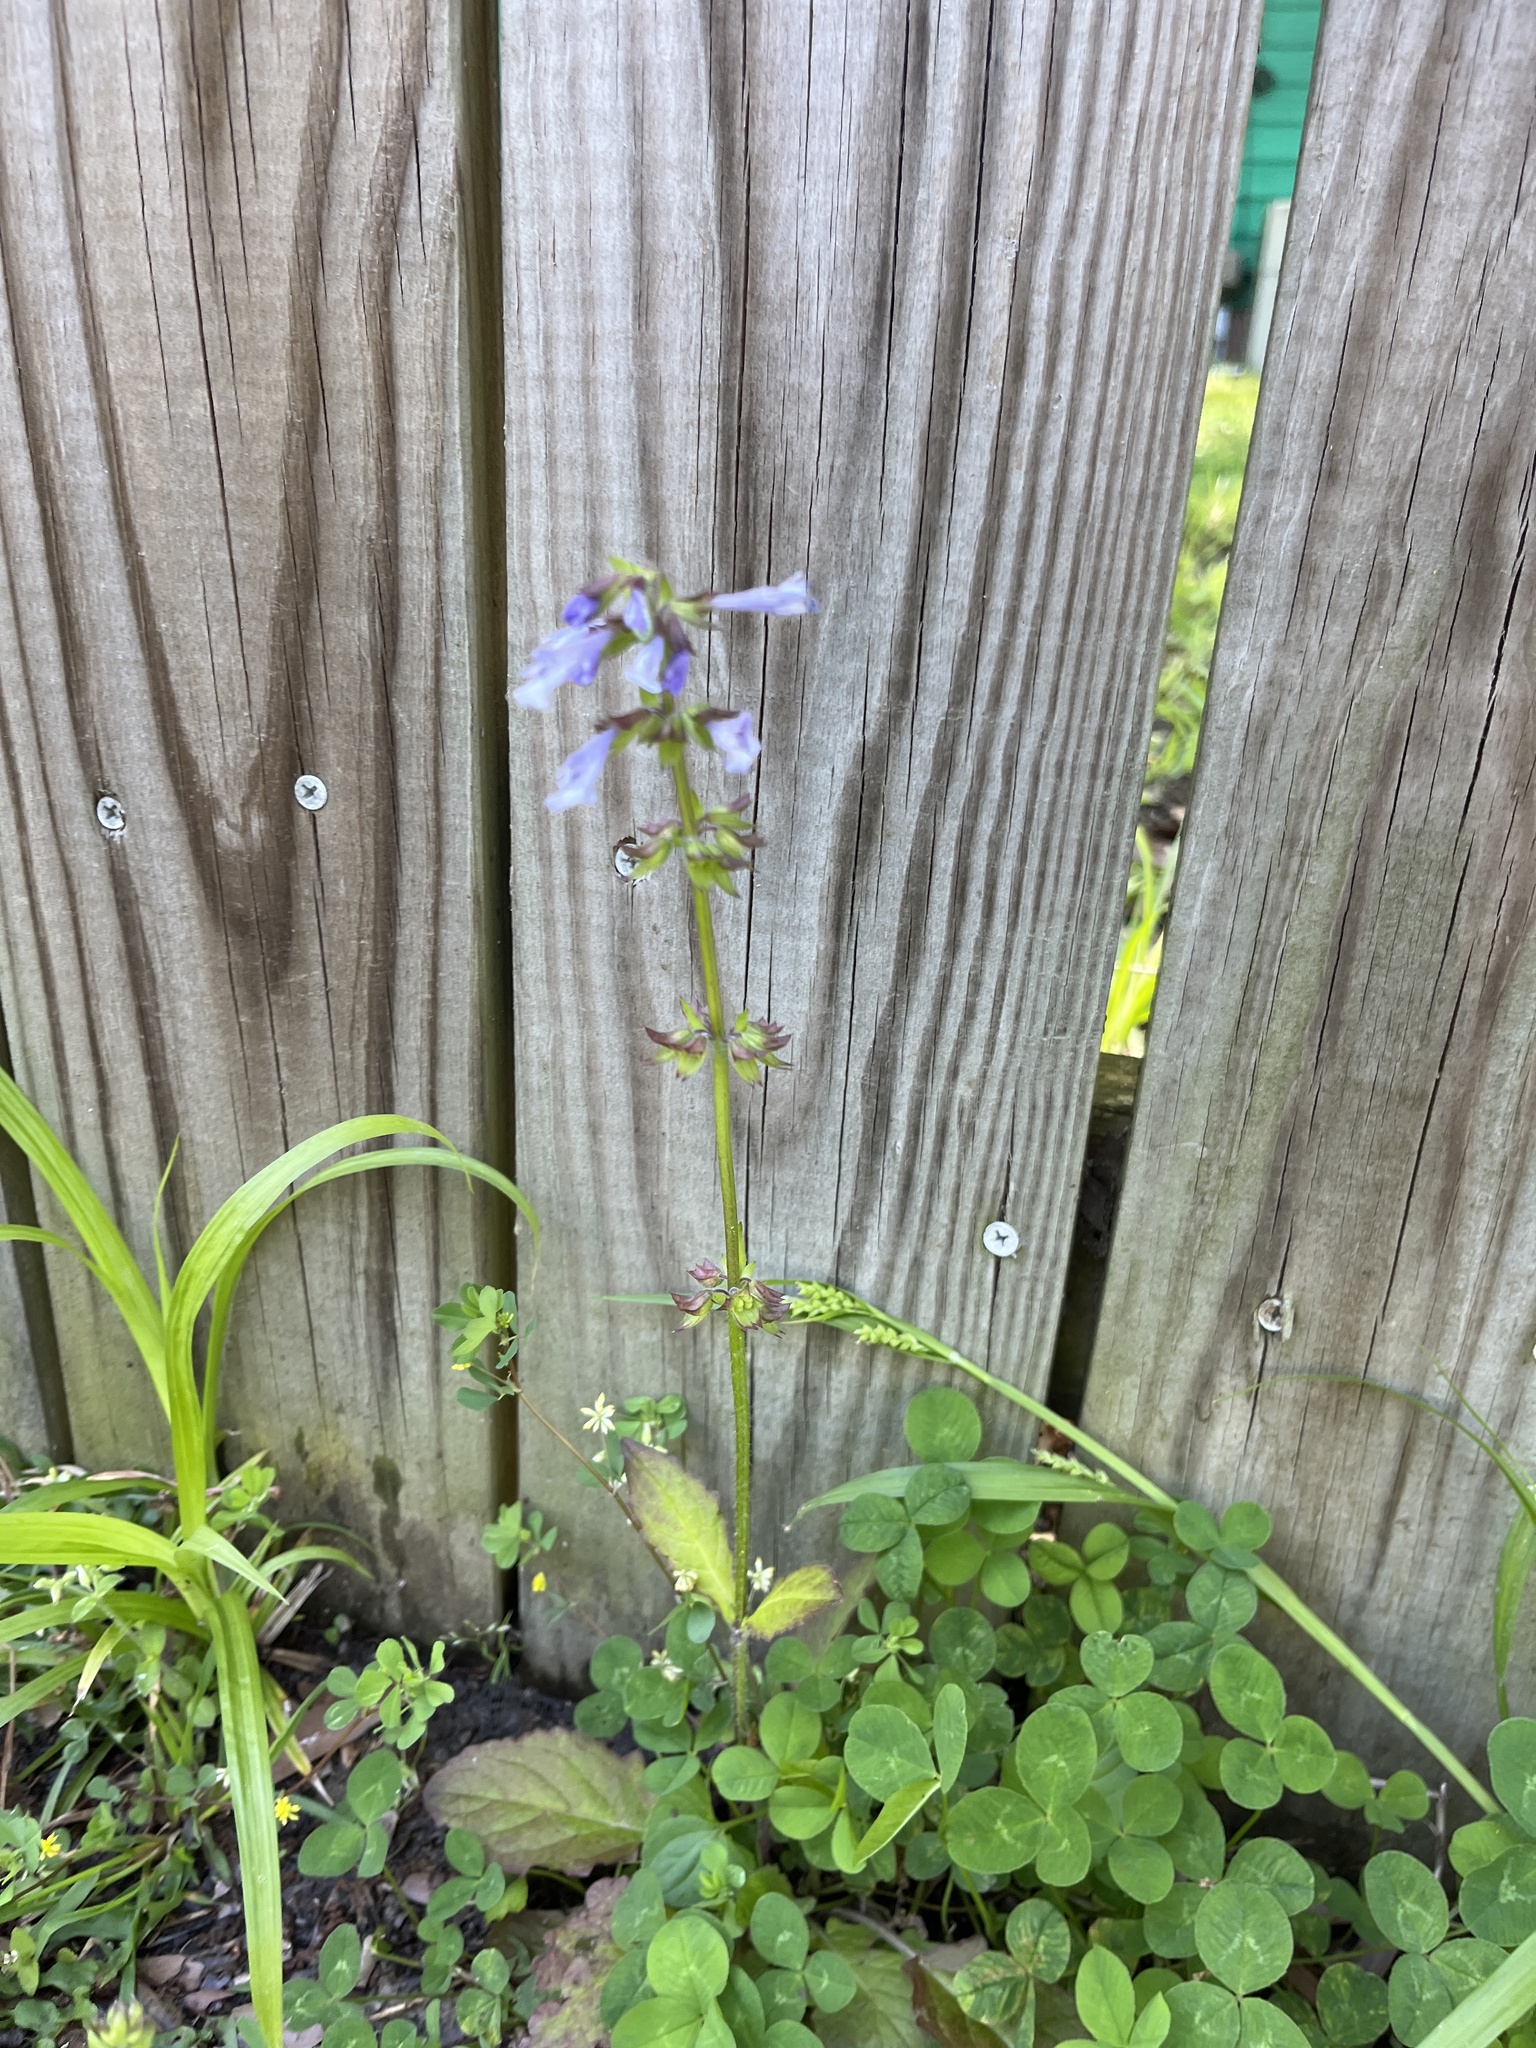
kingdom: Plantae
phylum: Tracheophyta
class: Magnoliopsida
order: Lamiales
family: Lamiaceae
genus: Salvia
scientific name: Salvia lyrata
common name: Cancerweed
